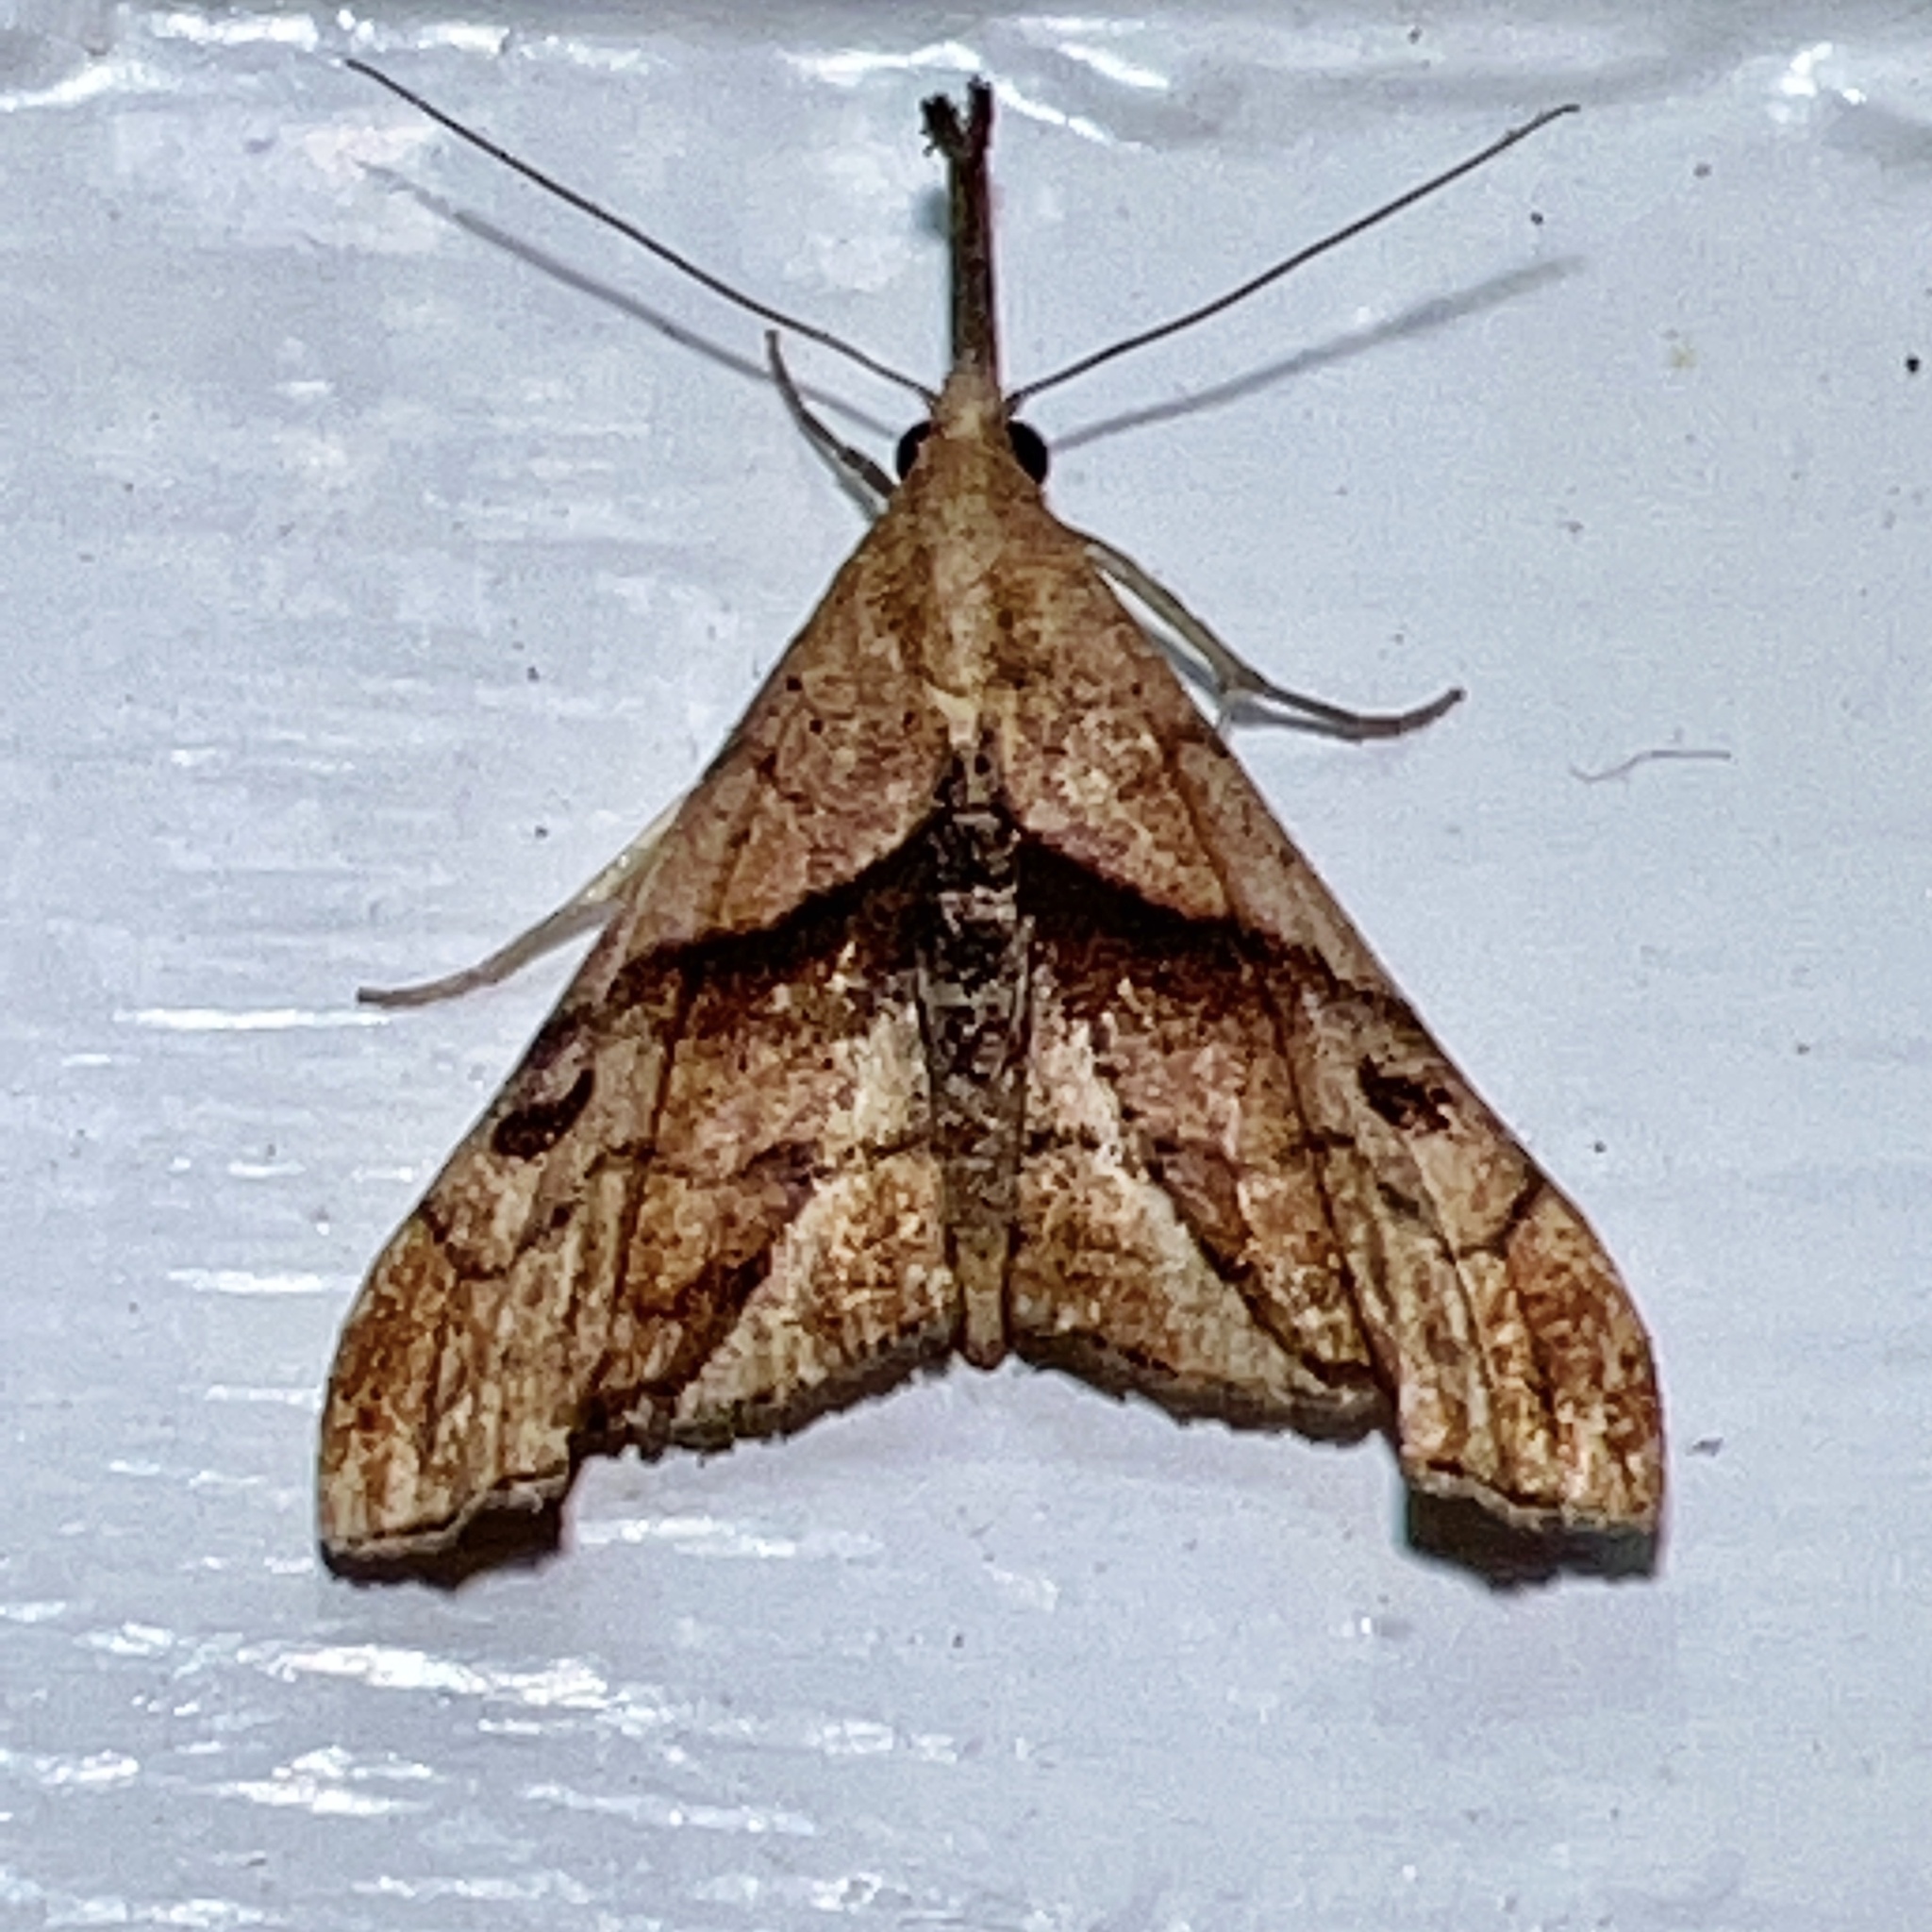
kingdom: Animalia
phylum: Arthropoda
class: Insecta
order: Lepidoptera
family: Erebidae
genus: Palthis
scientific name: Palthis angulalis
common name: Dark-spotted palthis moth
